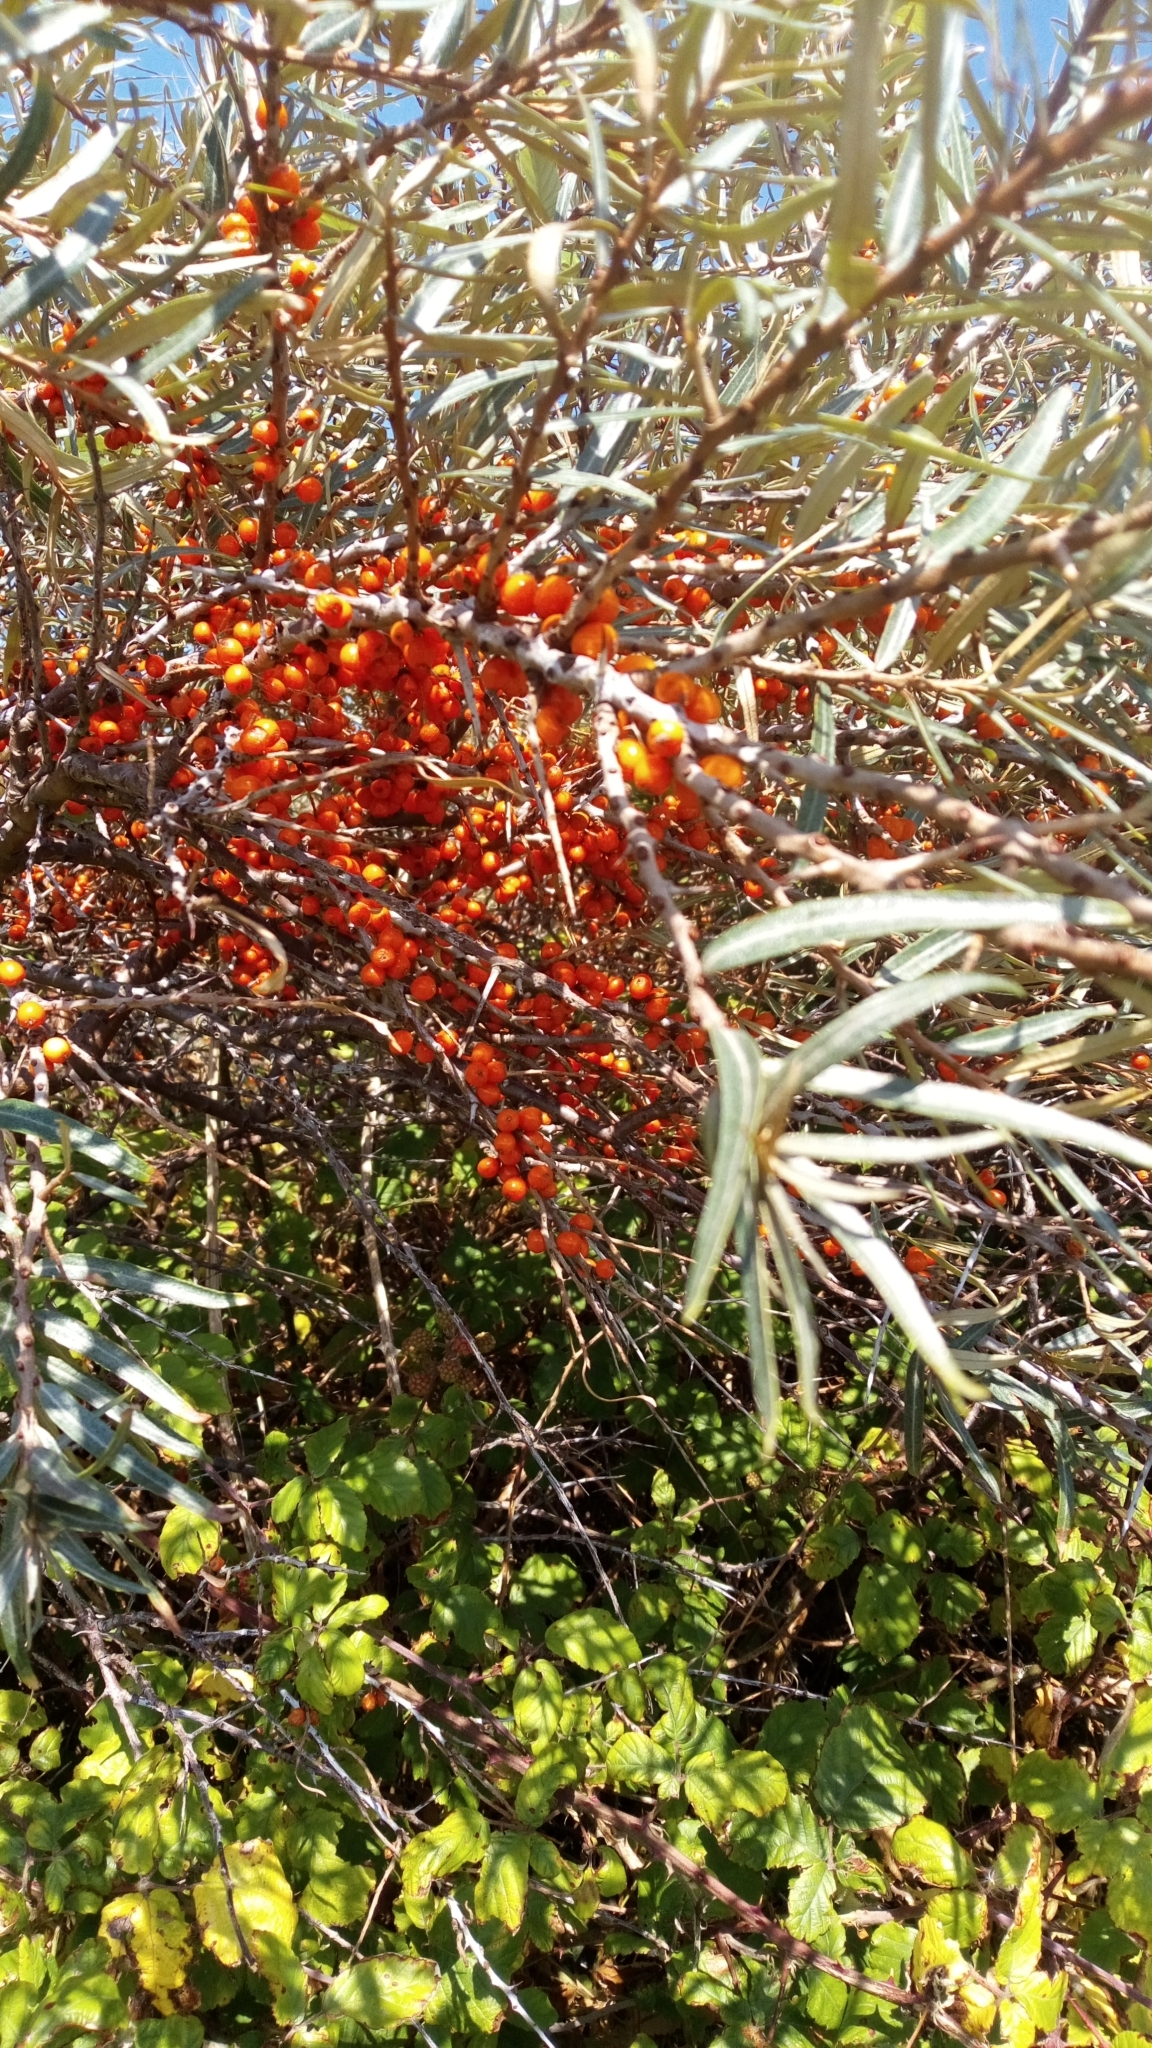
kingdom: Plantae
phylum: Tracheophyta
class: Magnoliopsida
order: Rosales
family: Elaeagnaceae
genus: Hippophae
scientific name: Hippophae rhamnoides
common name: Sea-buckthorn
